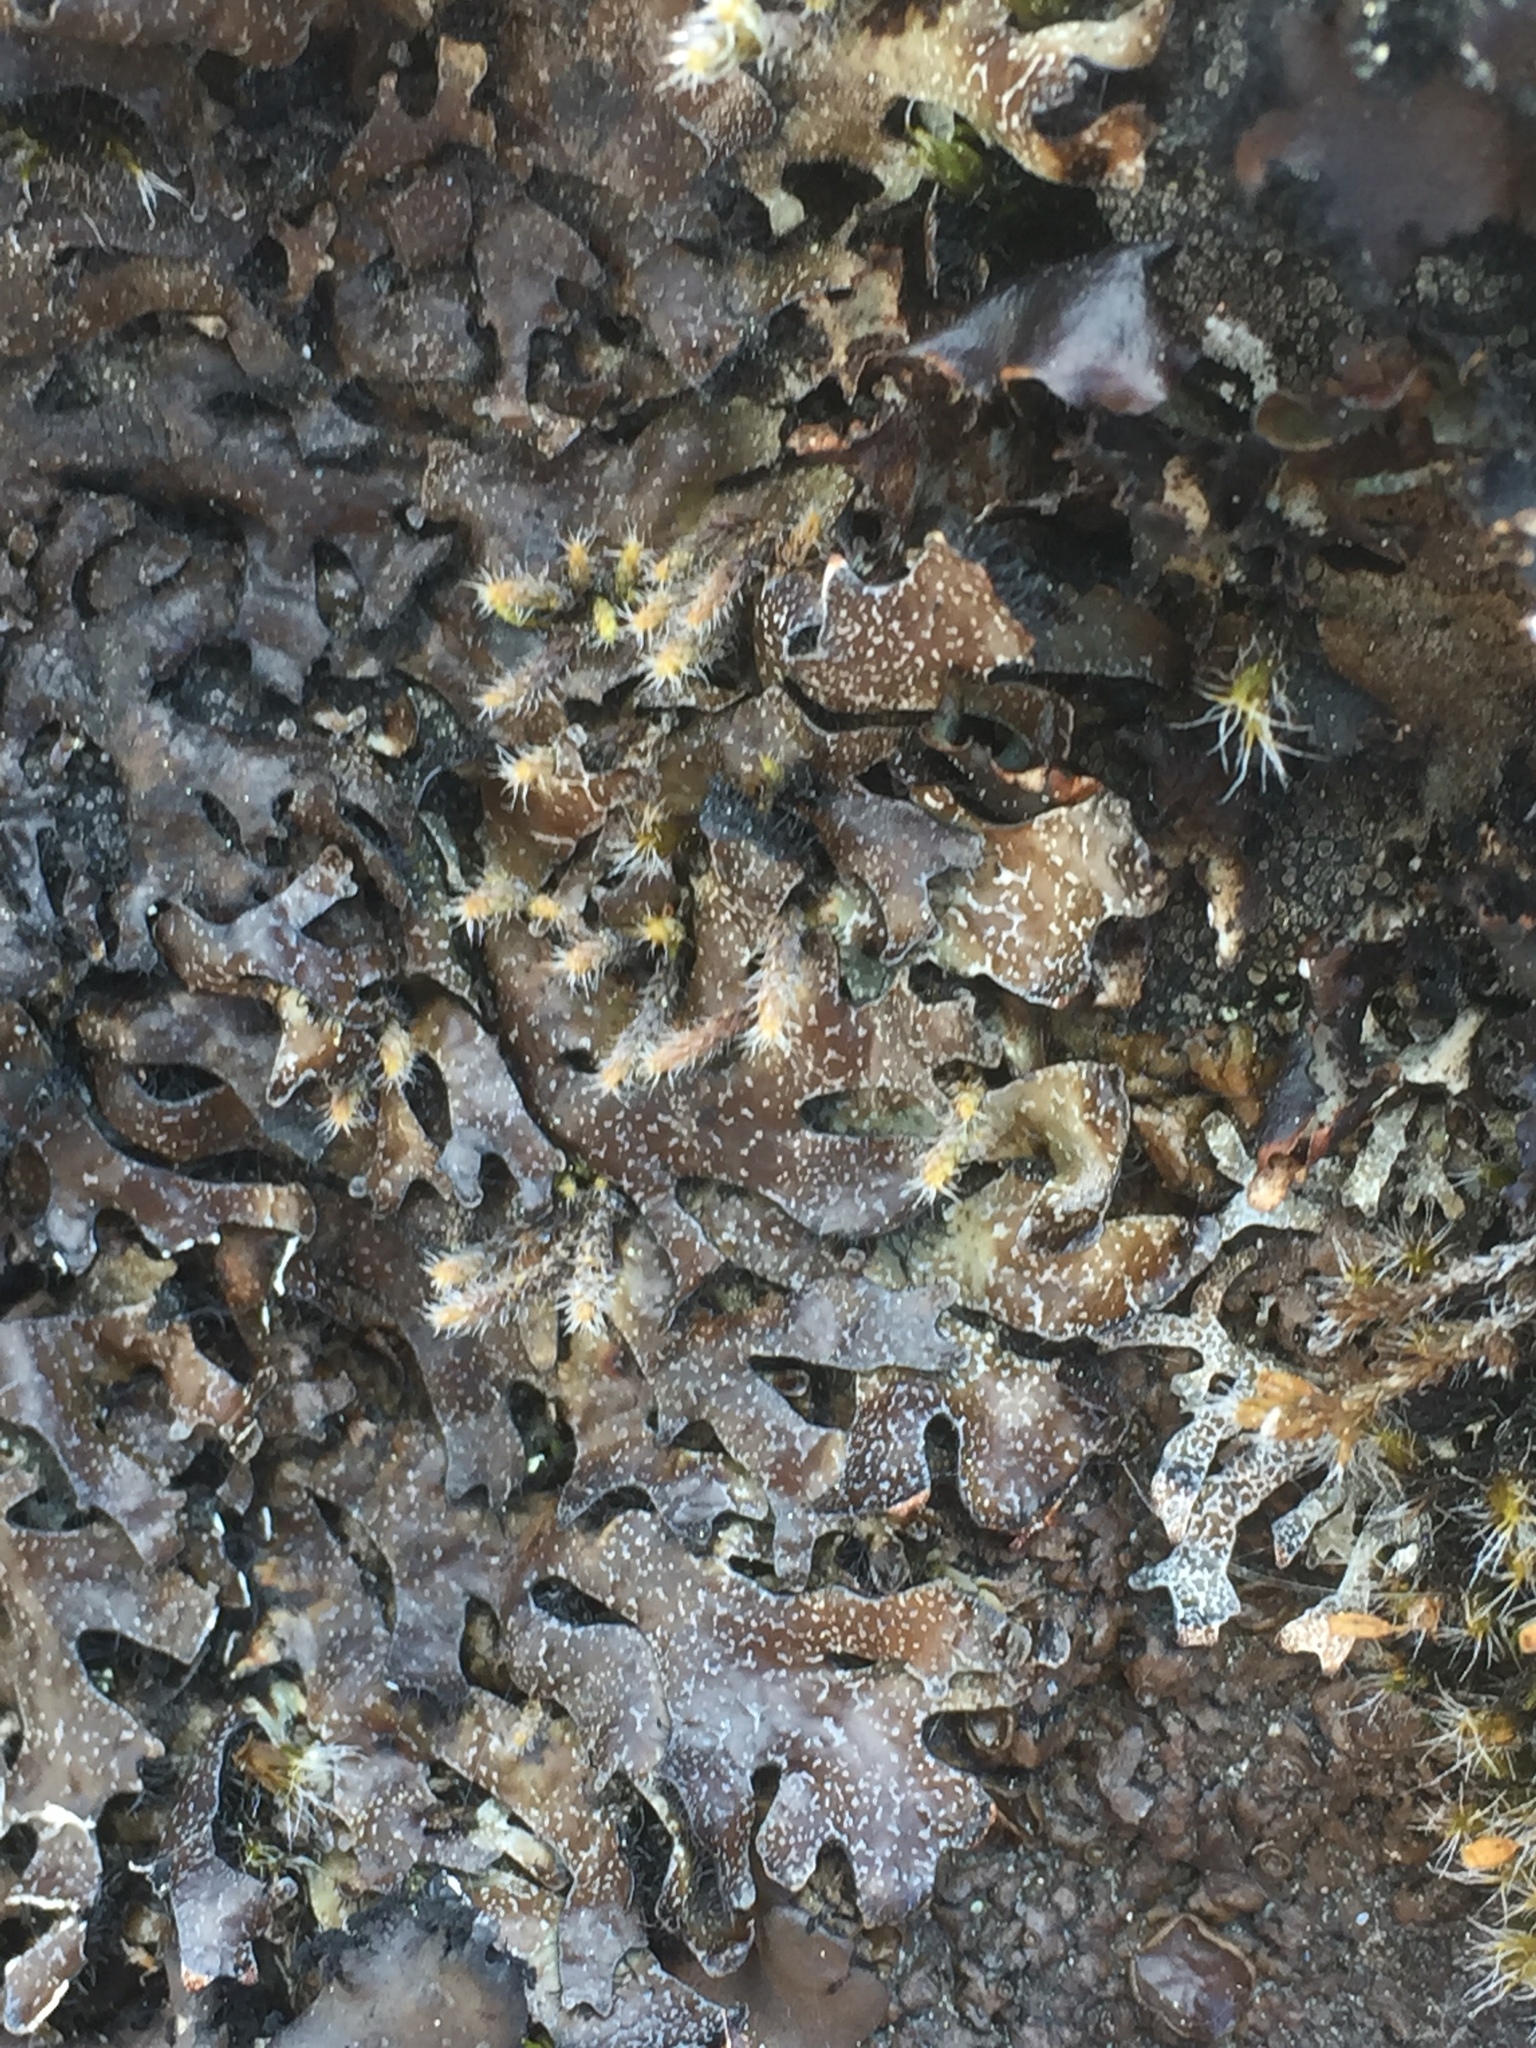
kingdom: Fungi
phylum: Ascomycota
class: Lecanoromycetes
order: Lecanorales
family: Parmeliaceae
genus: Parmelia
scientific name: Parmelia omphalodes
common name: Smoky crottle
